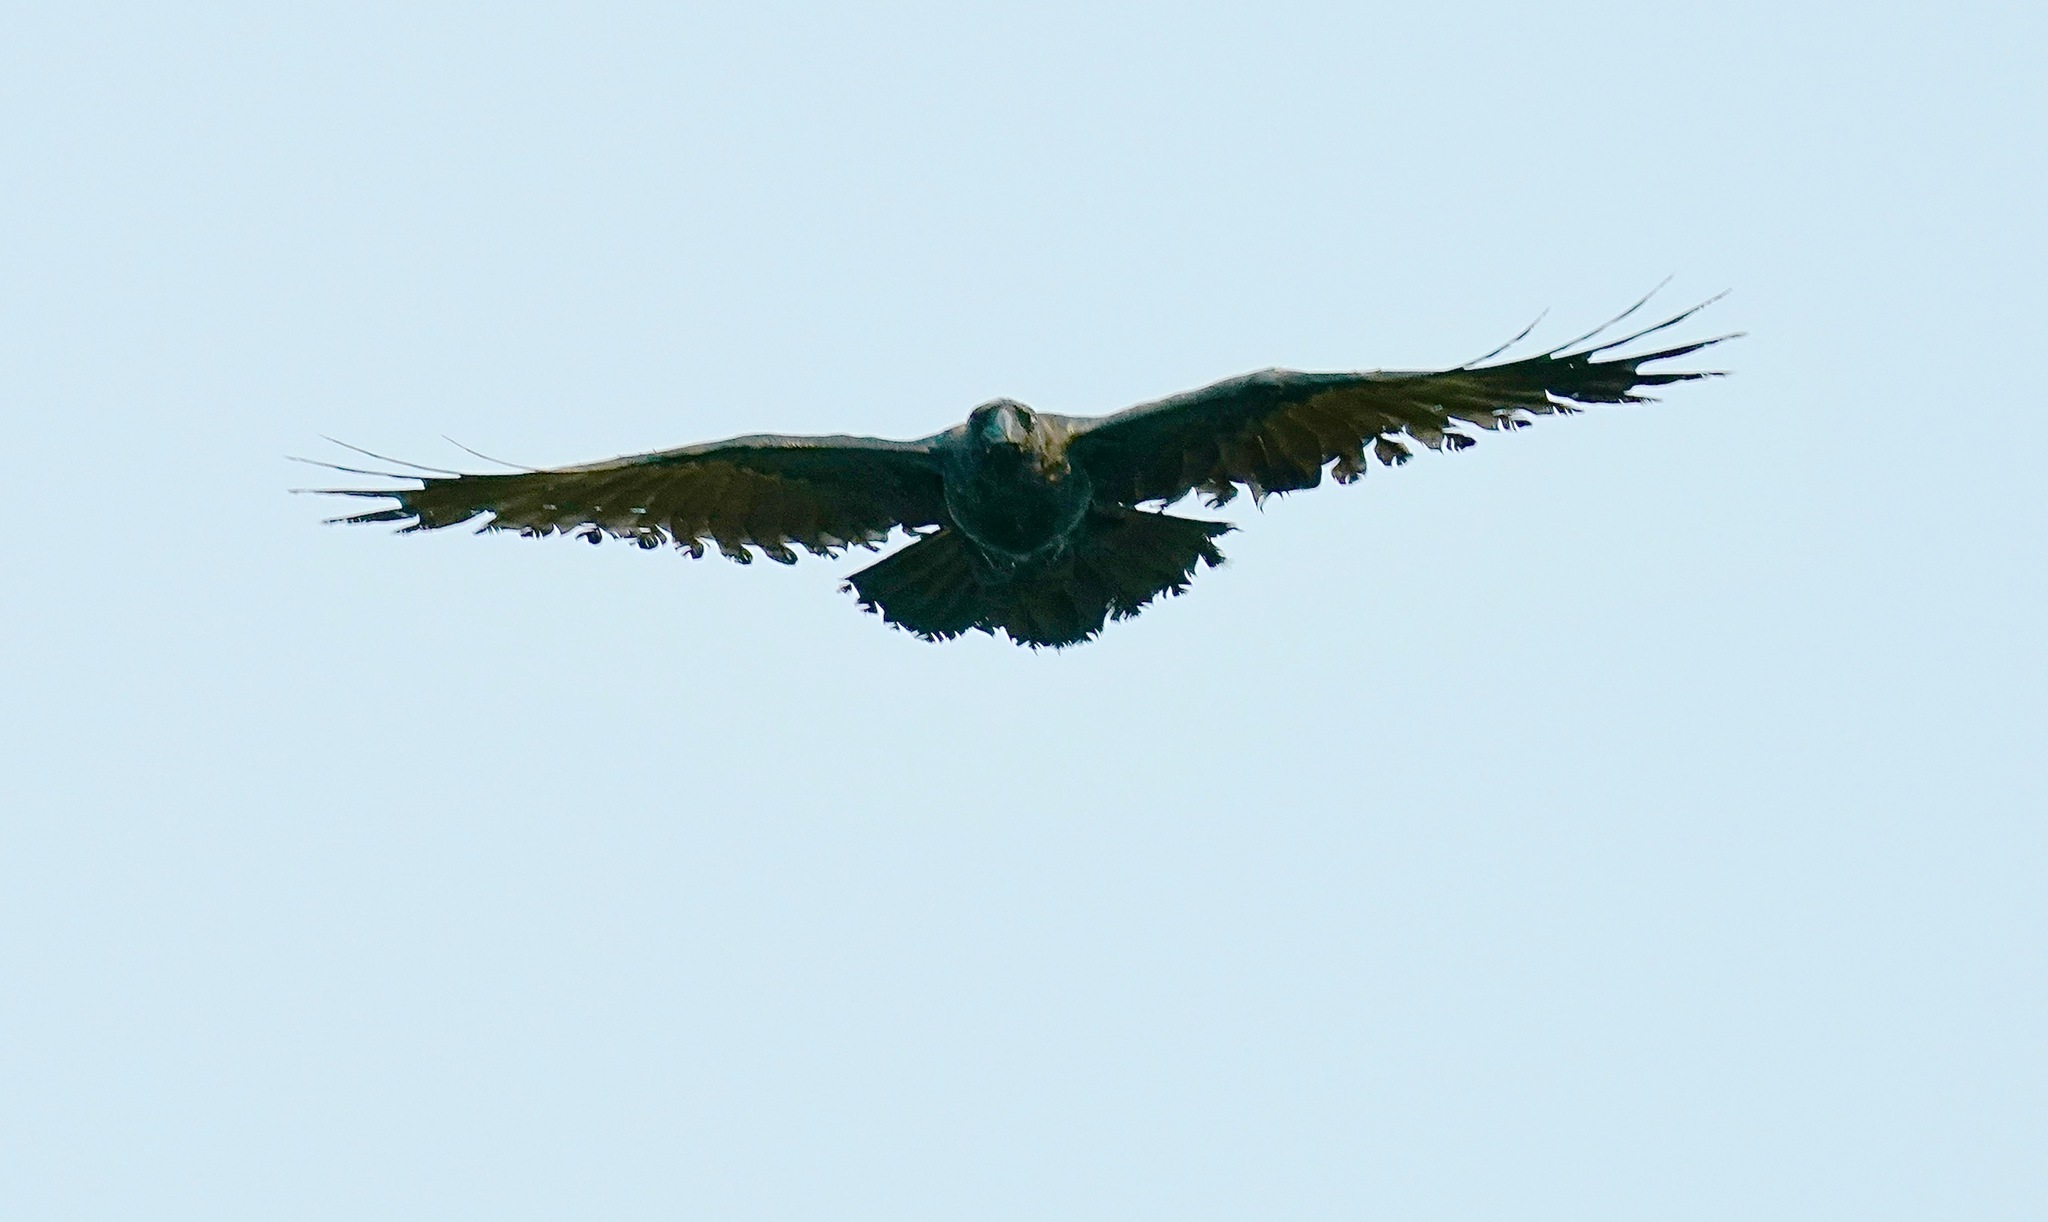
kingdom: Animalia
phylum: Chordata
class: Aves
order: Passeriformes
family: Corvidae
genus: Corvus
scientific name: Corvus corax
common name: Common raven
